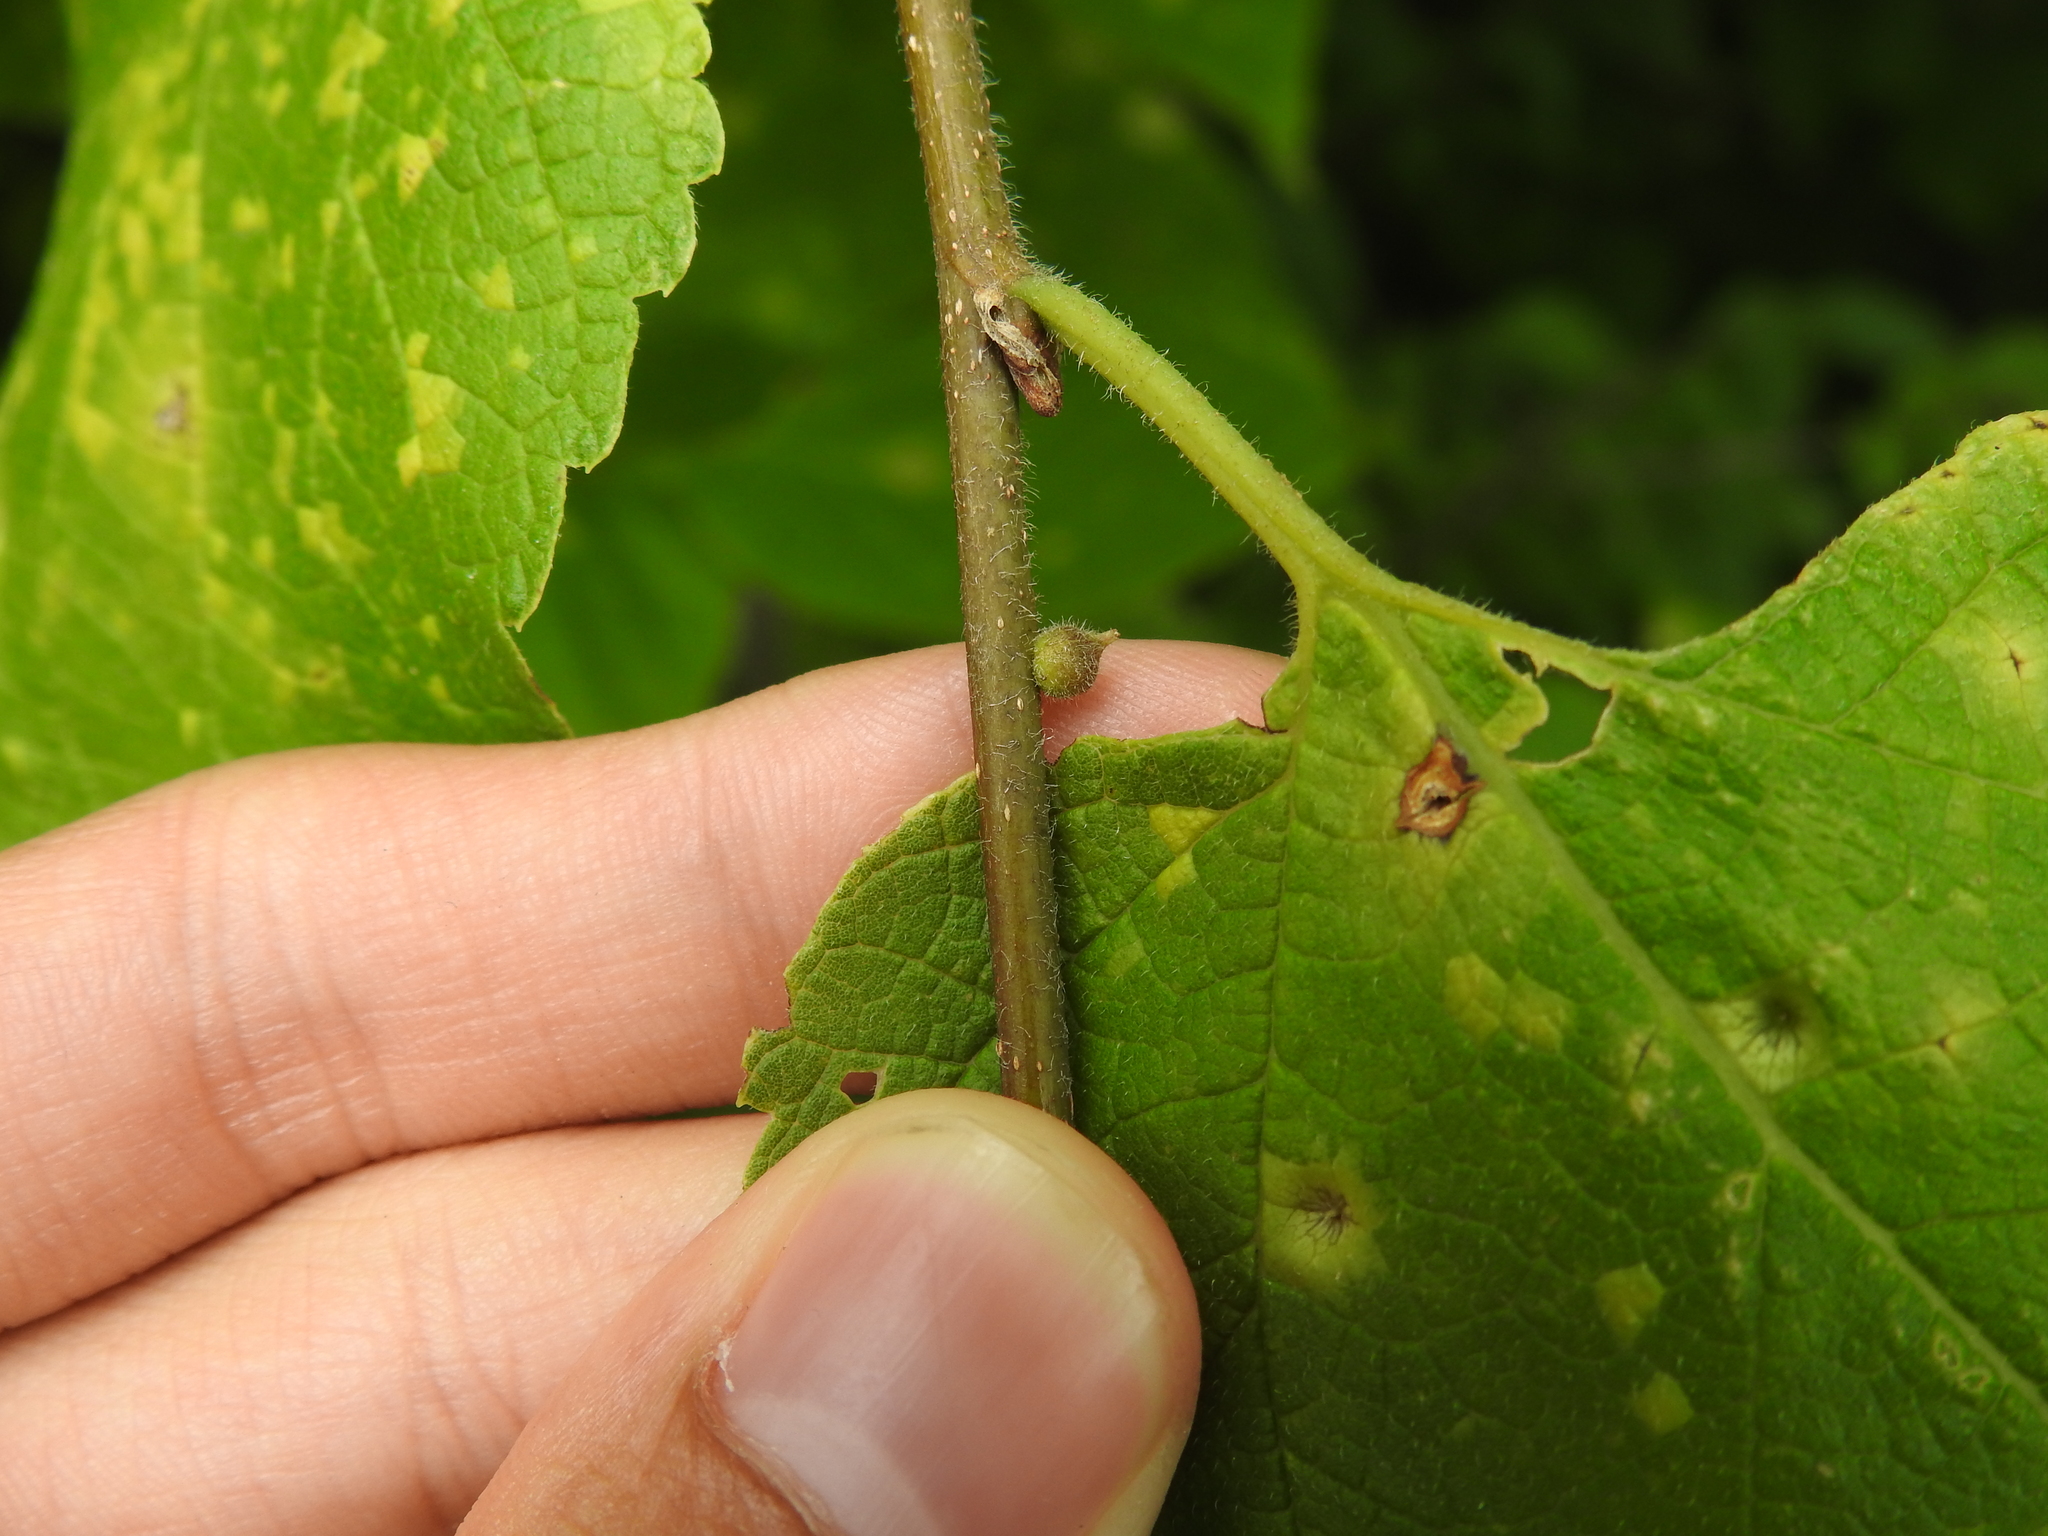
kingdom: Animalia
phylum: Arthropoda
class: Insecta
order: Diptera
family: Cecidomyiidae
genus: Celticecis
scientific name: Celticecis celtiphyllia
